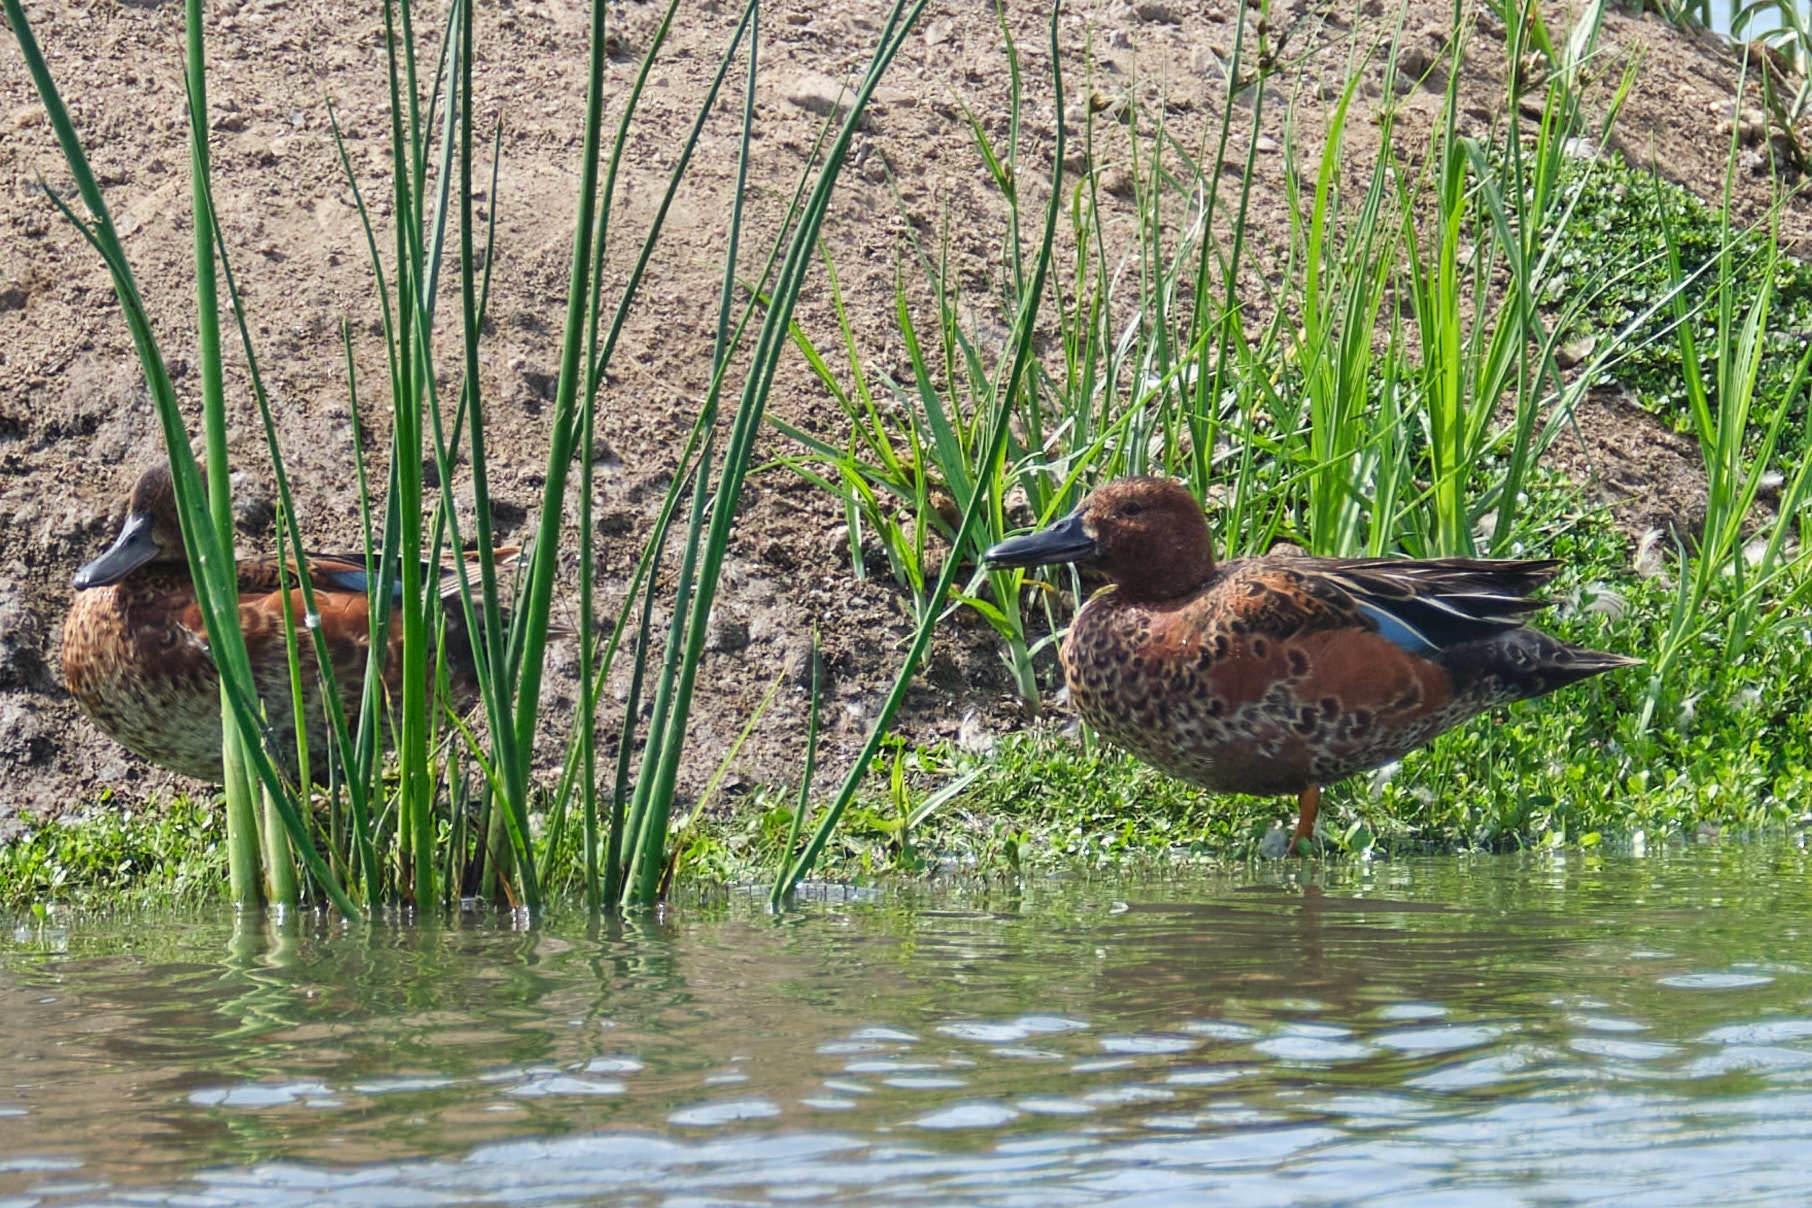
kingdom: Animalia
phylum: Chordata
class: Aves
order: Anseriformes
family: Anatidae
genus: Spatula
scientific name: Spatula cyanoptera
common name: Cinnamon teal
